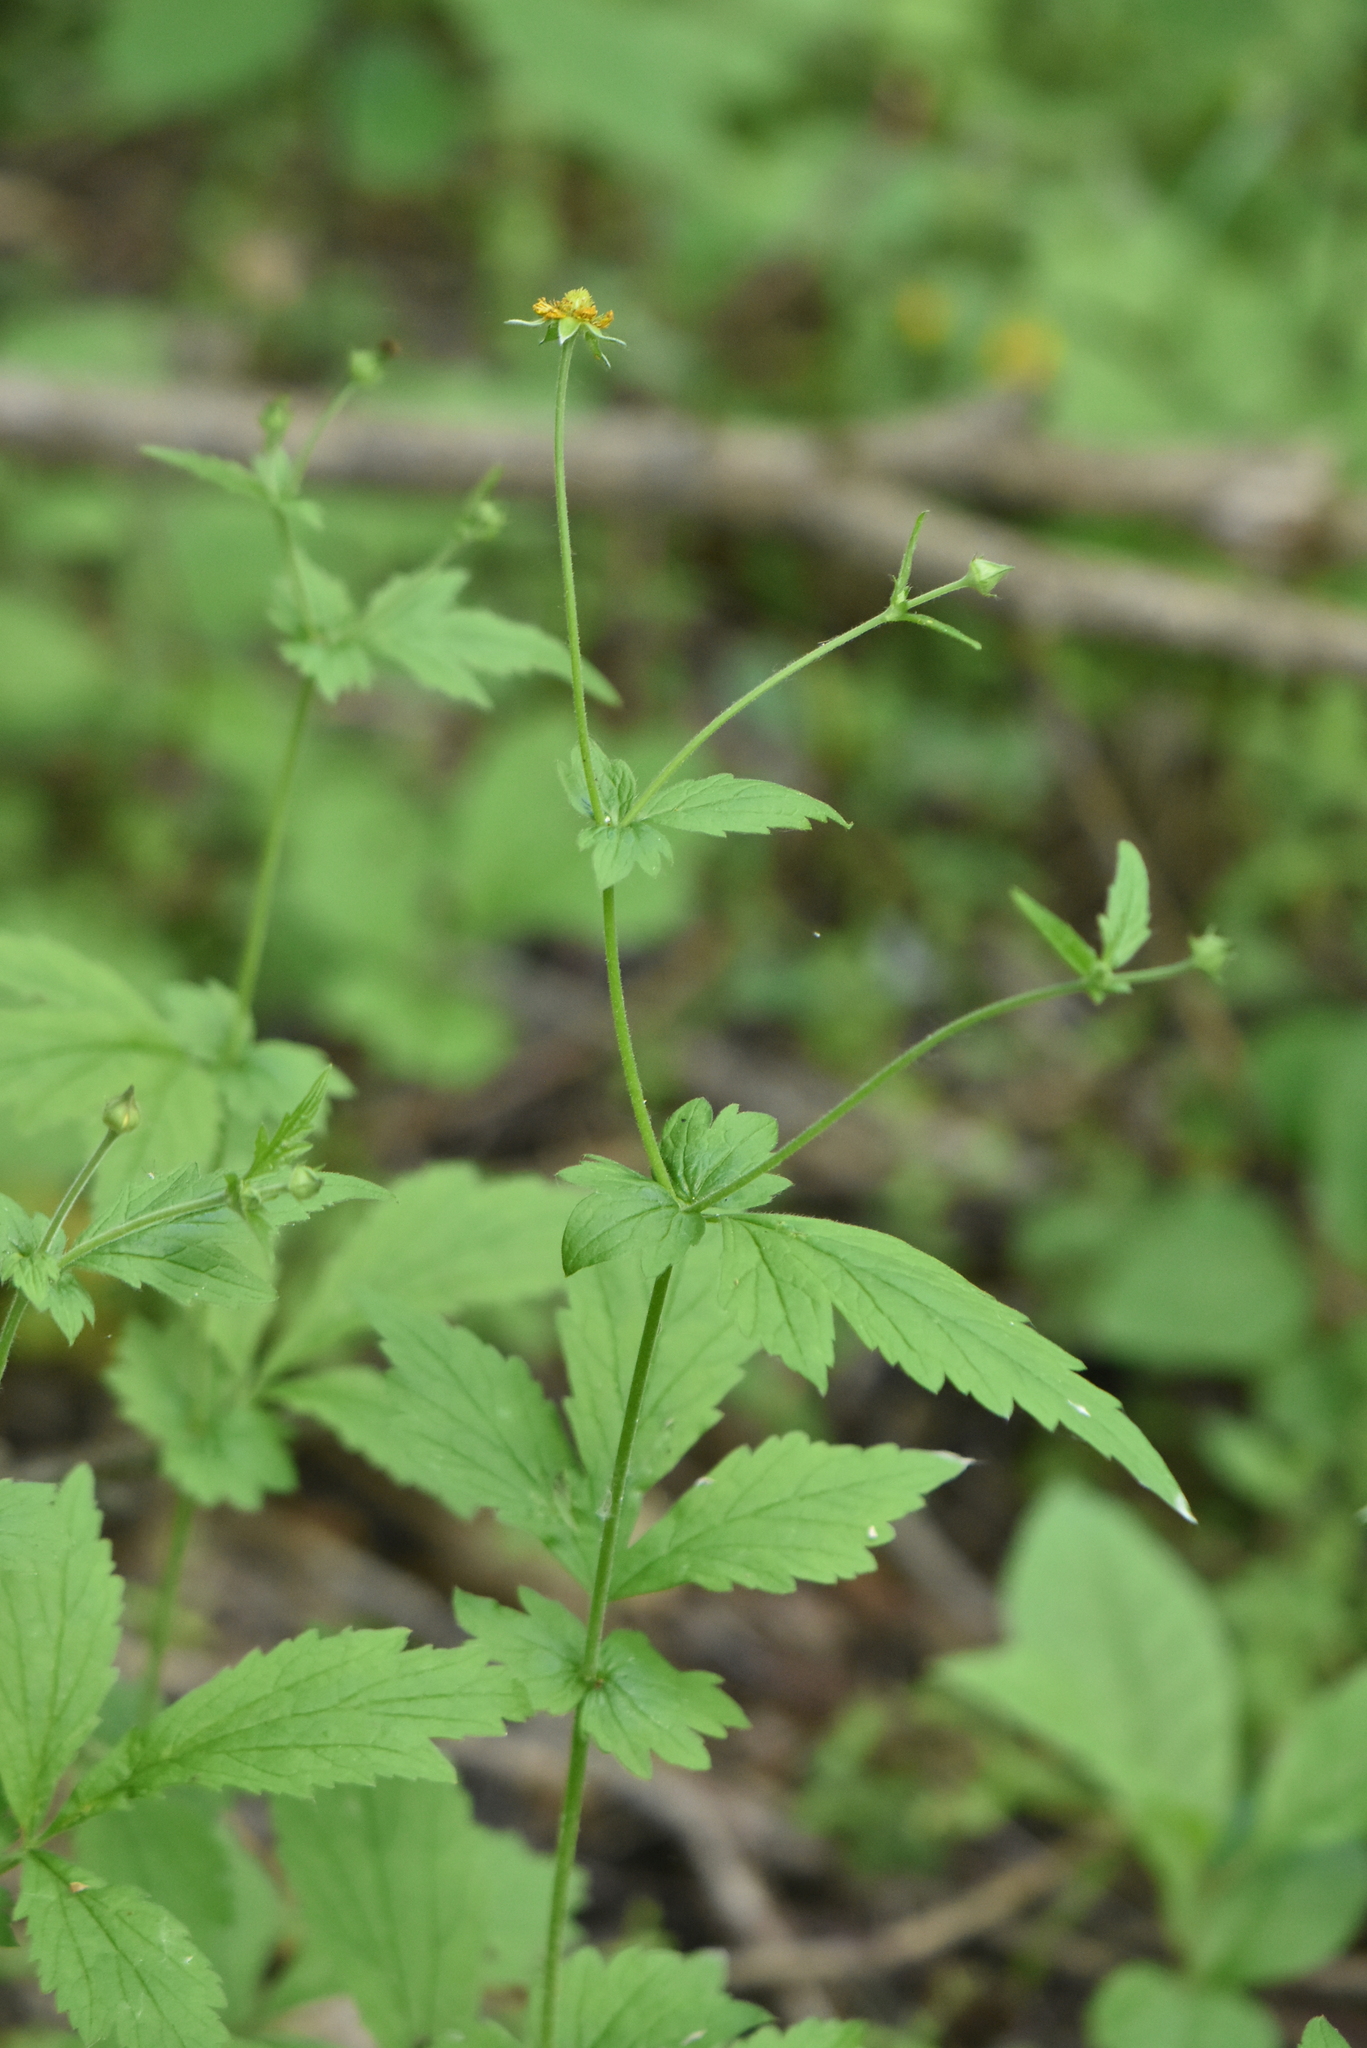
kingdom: Plantae
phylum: Tracheophyta
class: Magnoliopsida
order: Rosales
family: Rosaceae
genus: Geum
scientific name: Geum urbanum
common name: Wood avens
